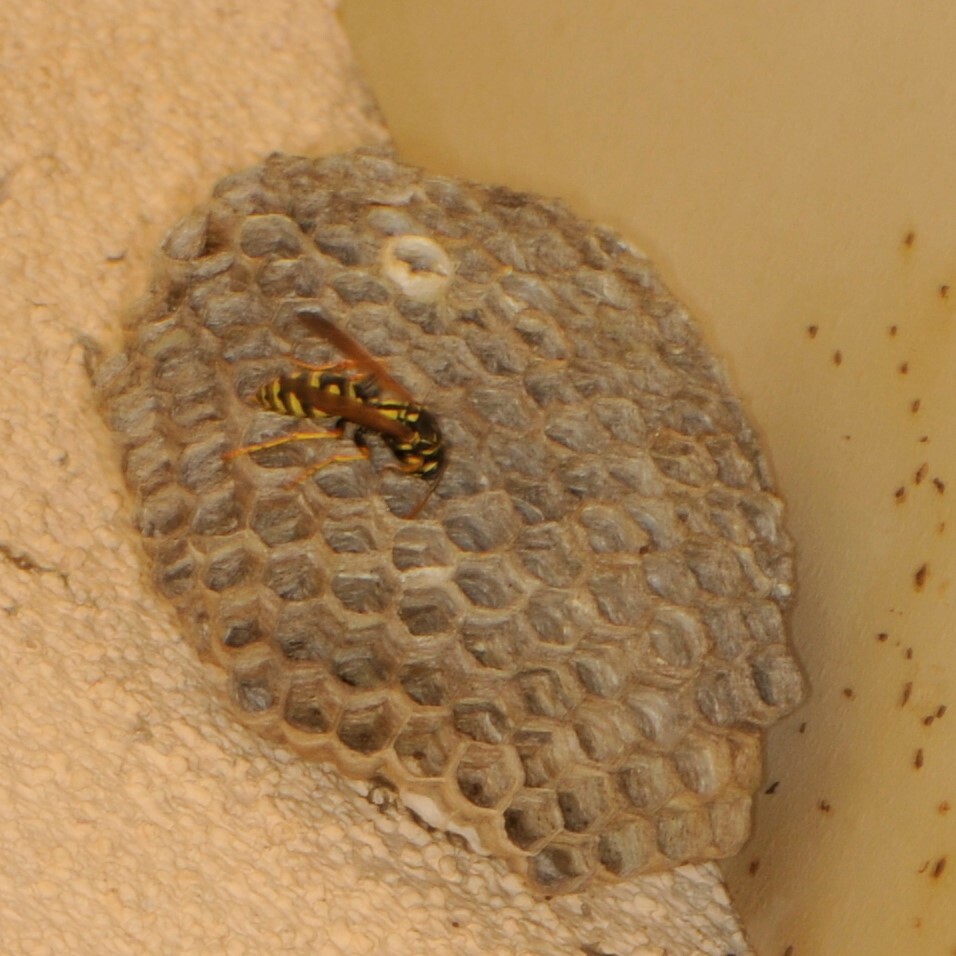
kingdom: Animalia
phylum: Arthropoda
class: Insecta
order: Hymenoptera
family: Eumenidae
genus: Polistes
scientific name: Polistes dominula
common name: Paper wasp
